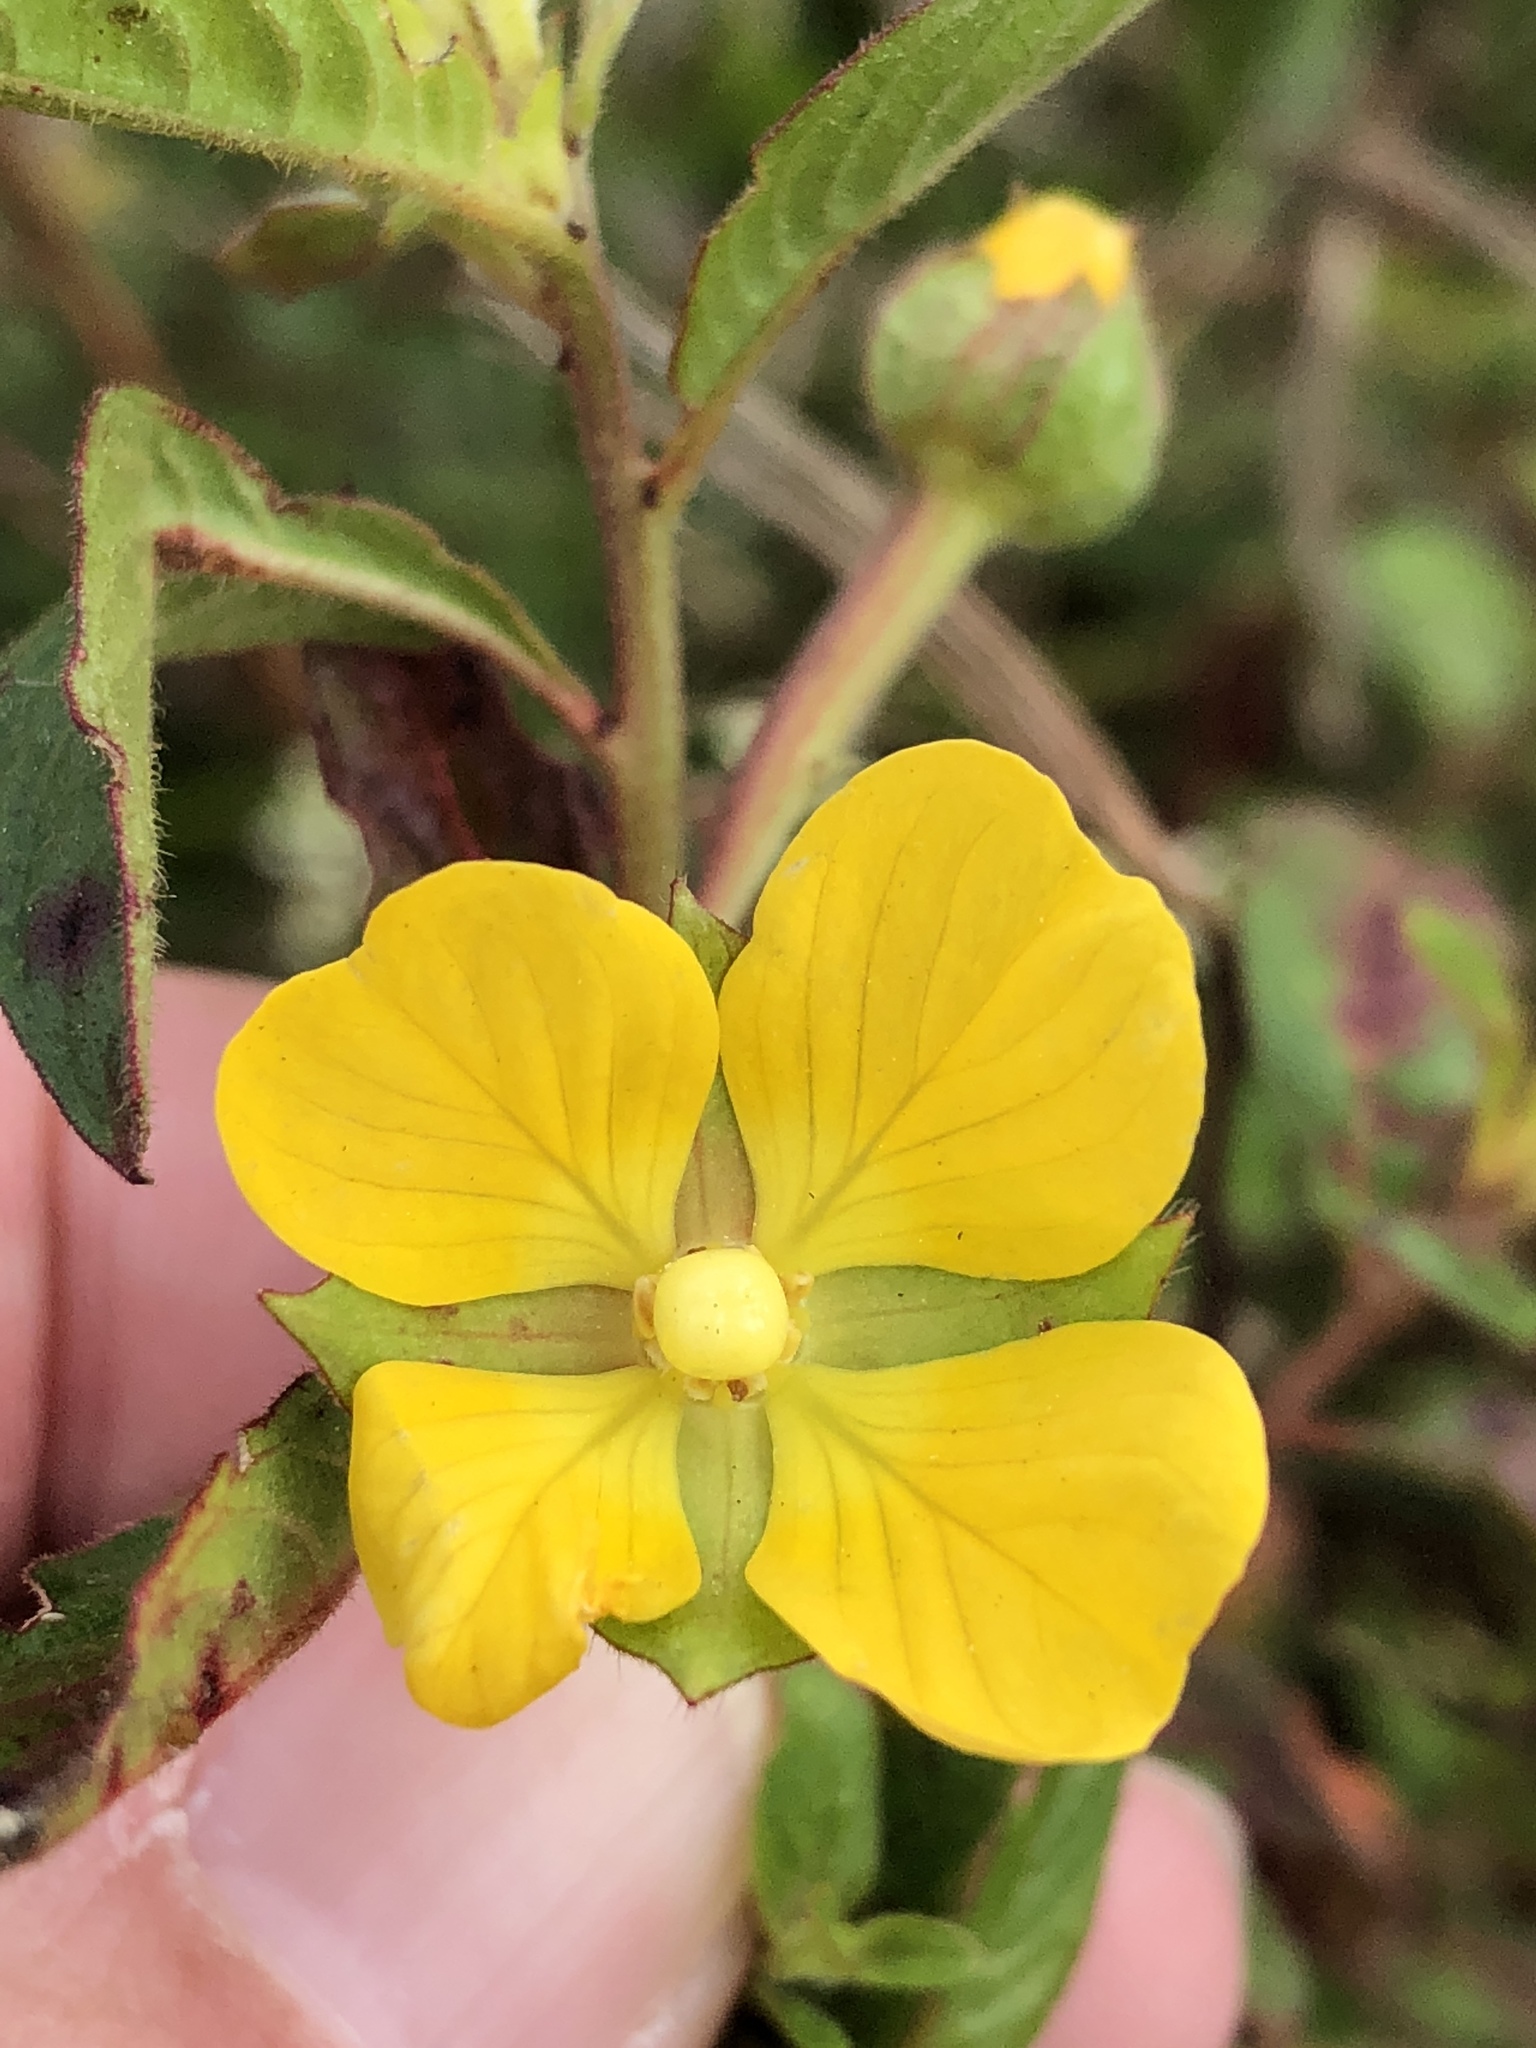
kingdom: Plantae
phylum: Tracheophyta
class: Magnoliopsida
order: Myrtales
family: Onagraceae
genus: Ludwigia
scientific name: Ludwigia octovalvis
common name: Water-primrose
